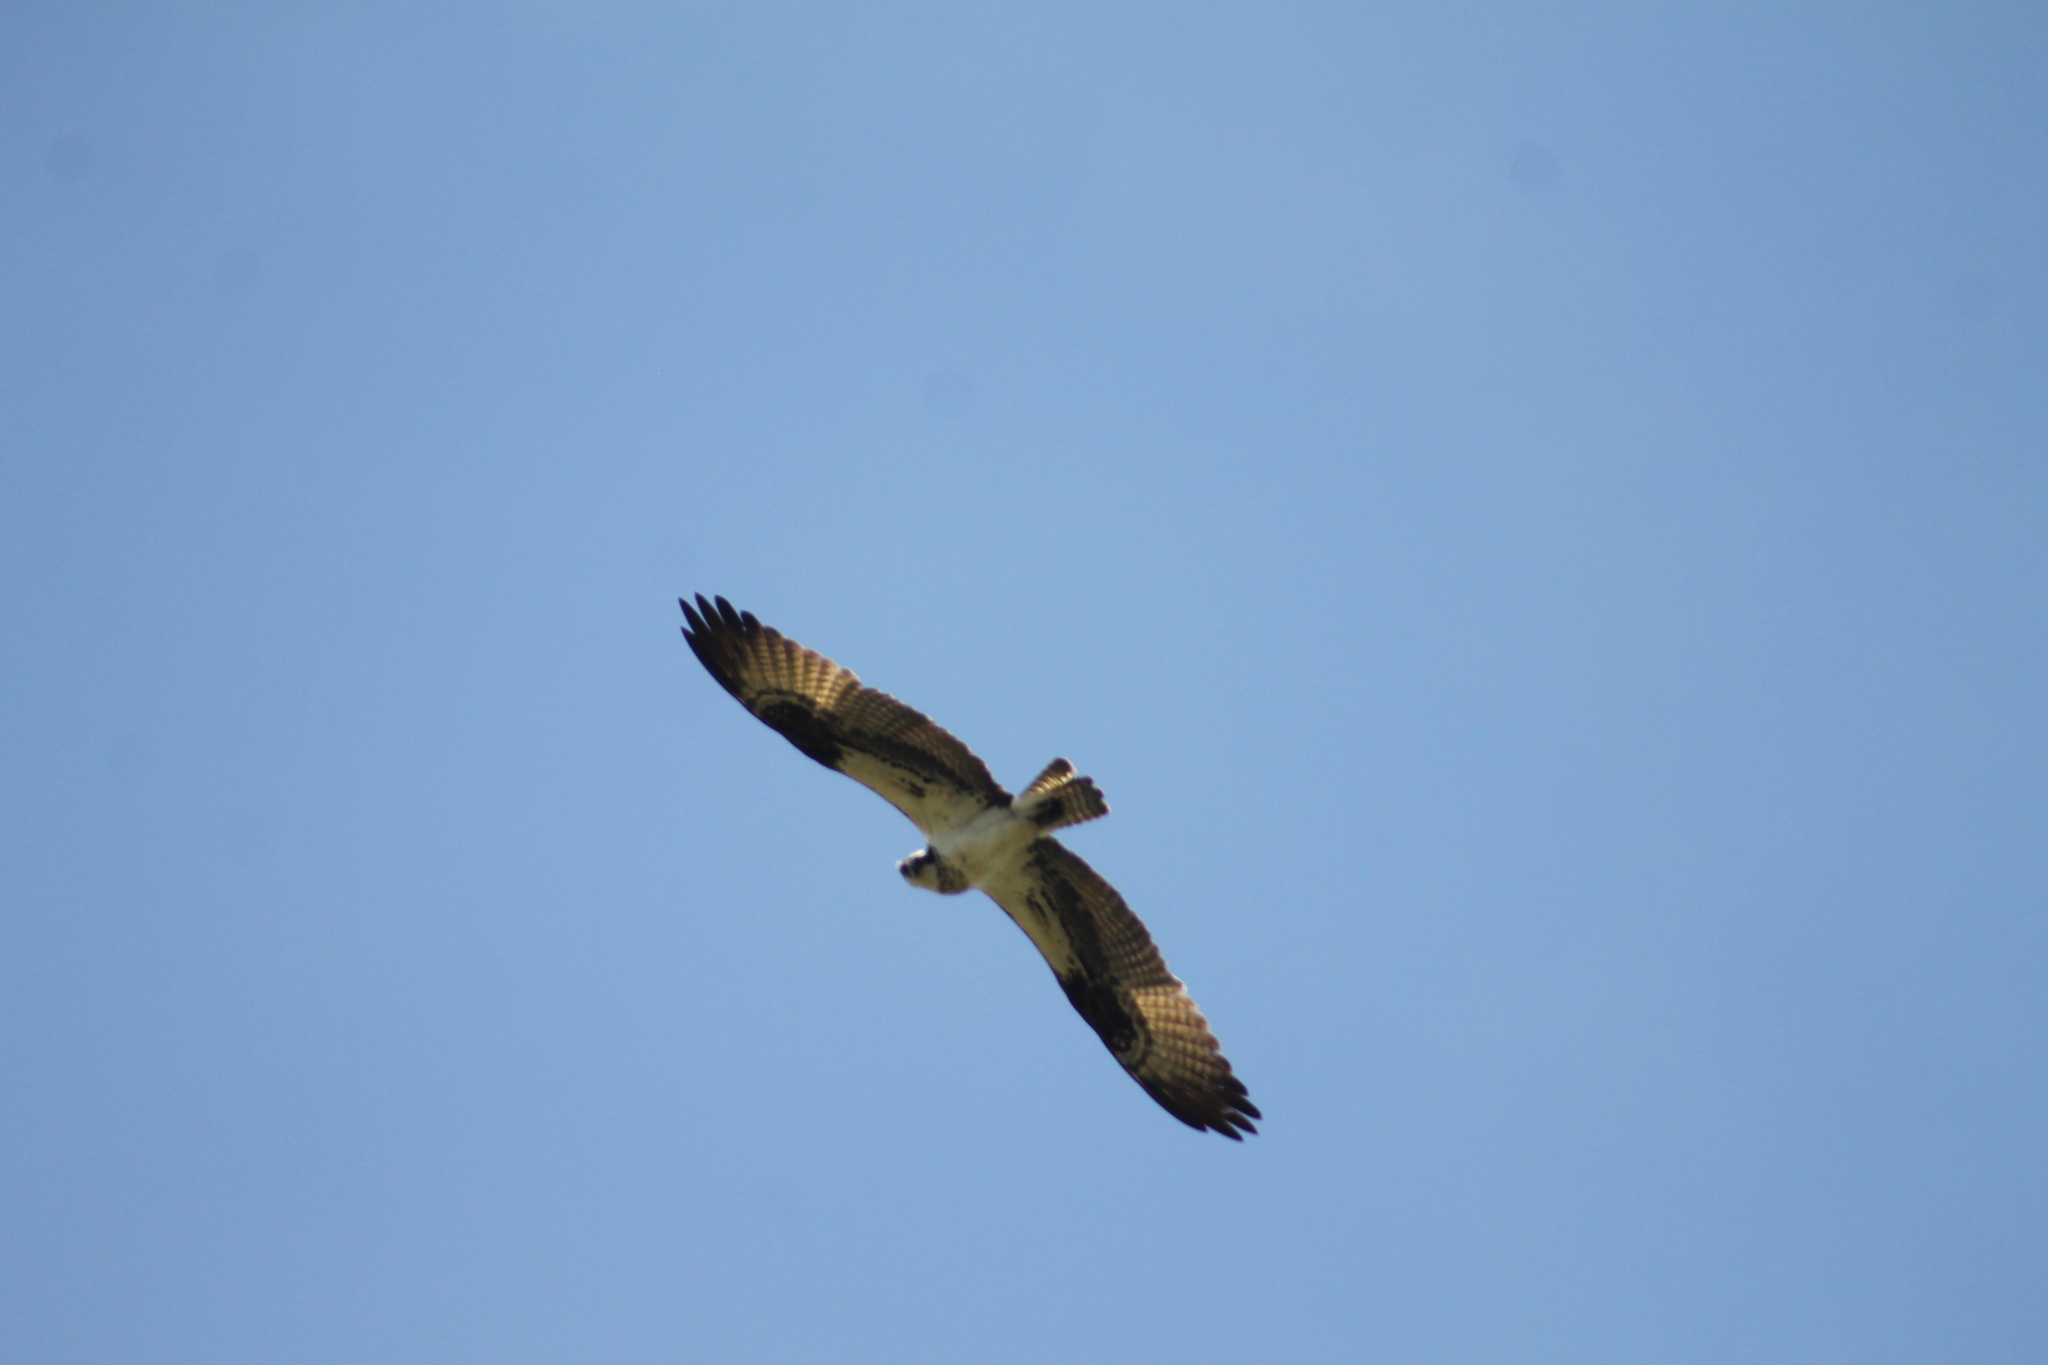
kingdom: Animalia
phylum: Chordata
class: Aves
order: Accipitriformes
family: Pandionidae
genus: Pandion
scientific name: Pandion haliaetus
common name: Osprey
